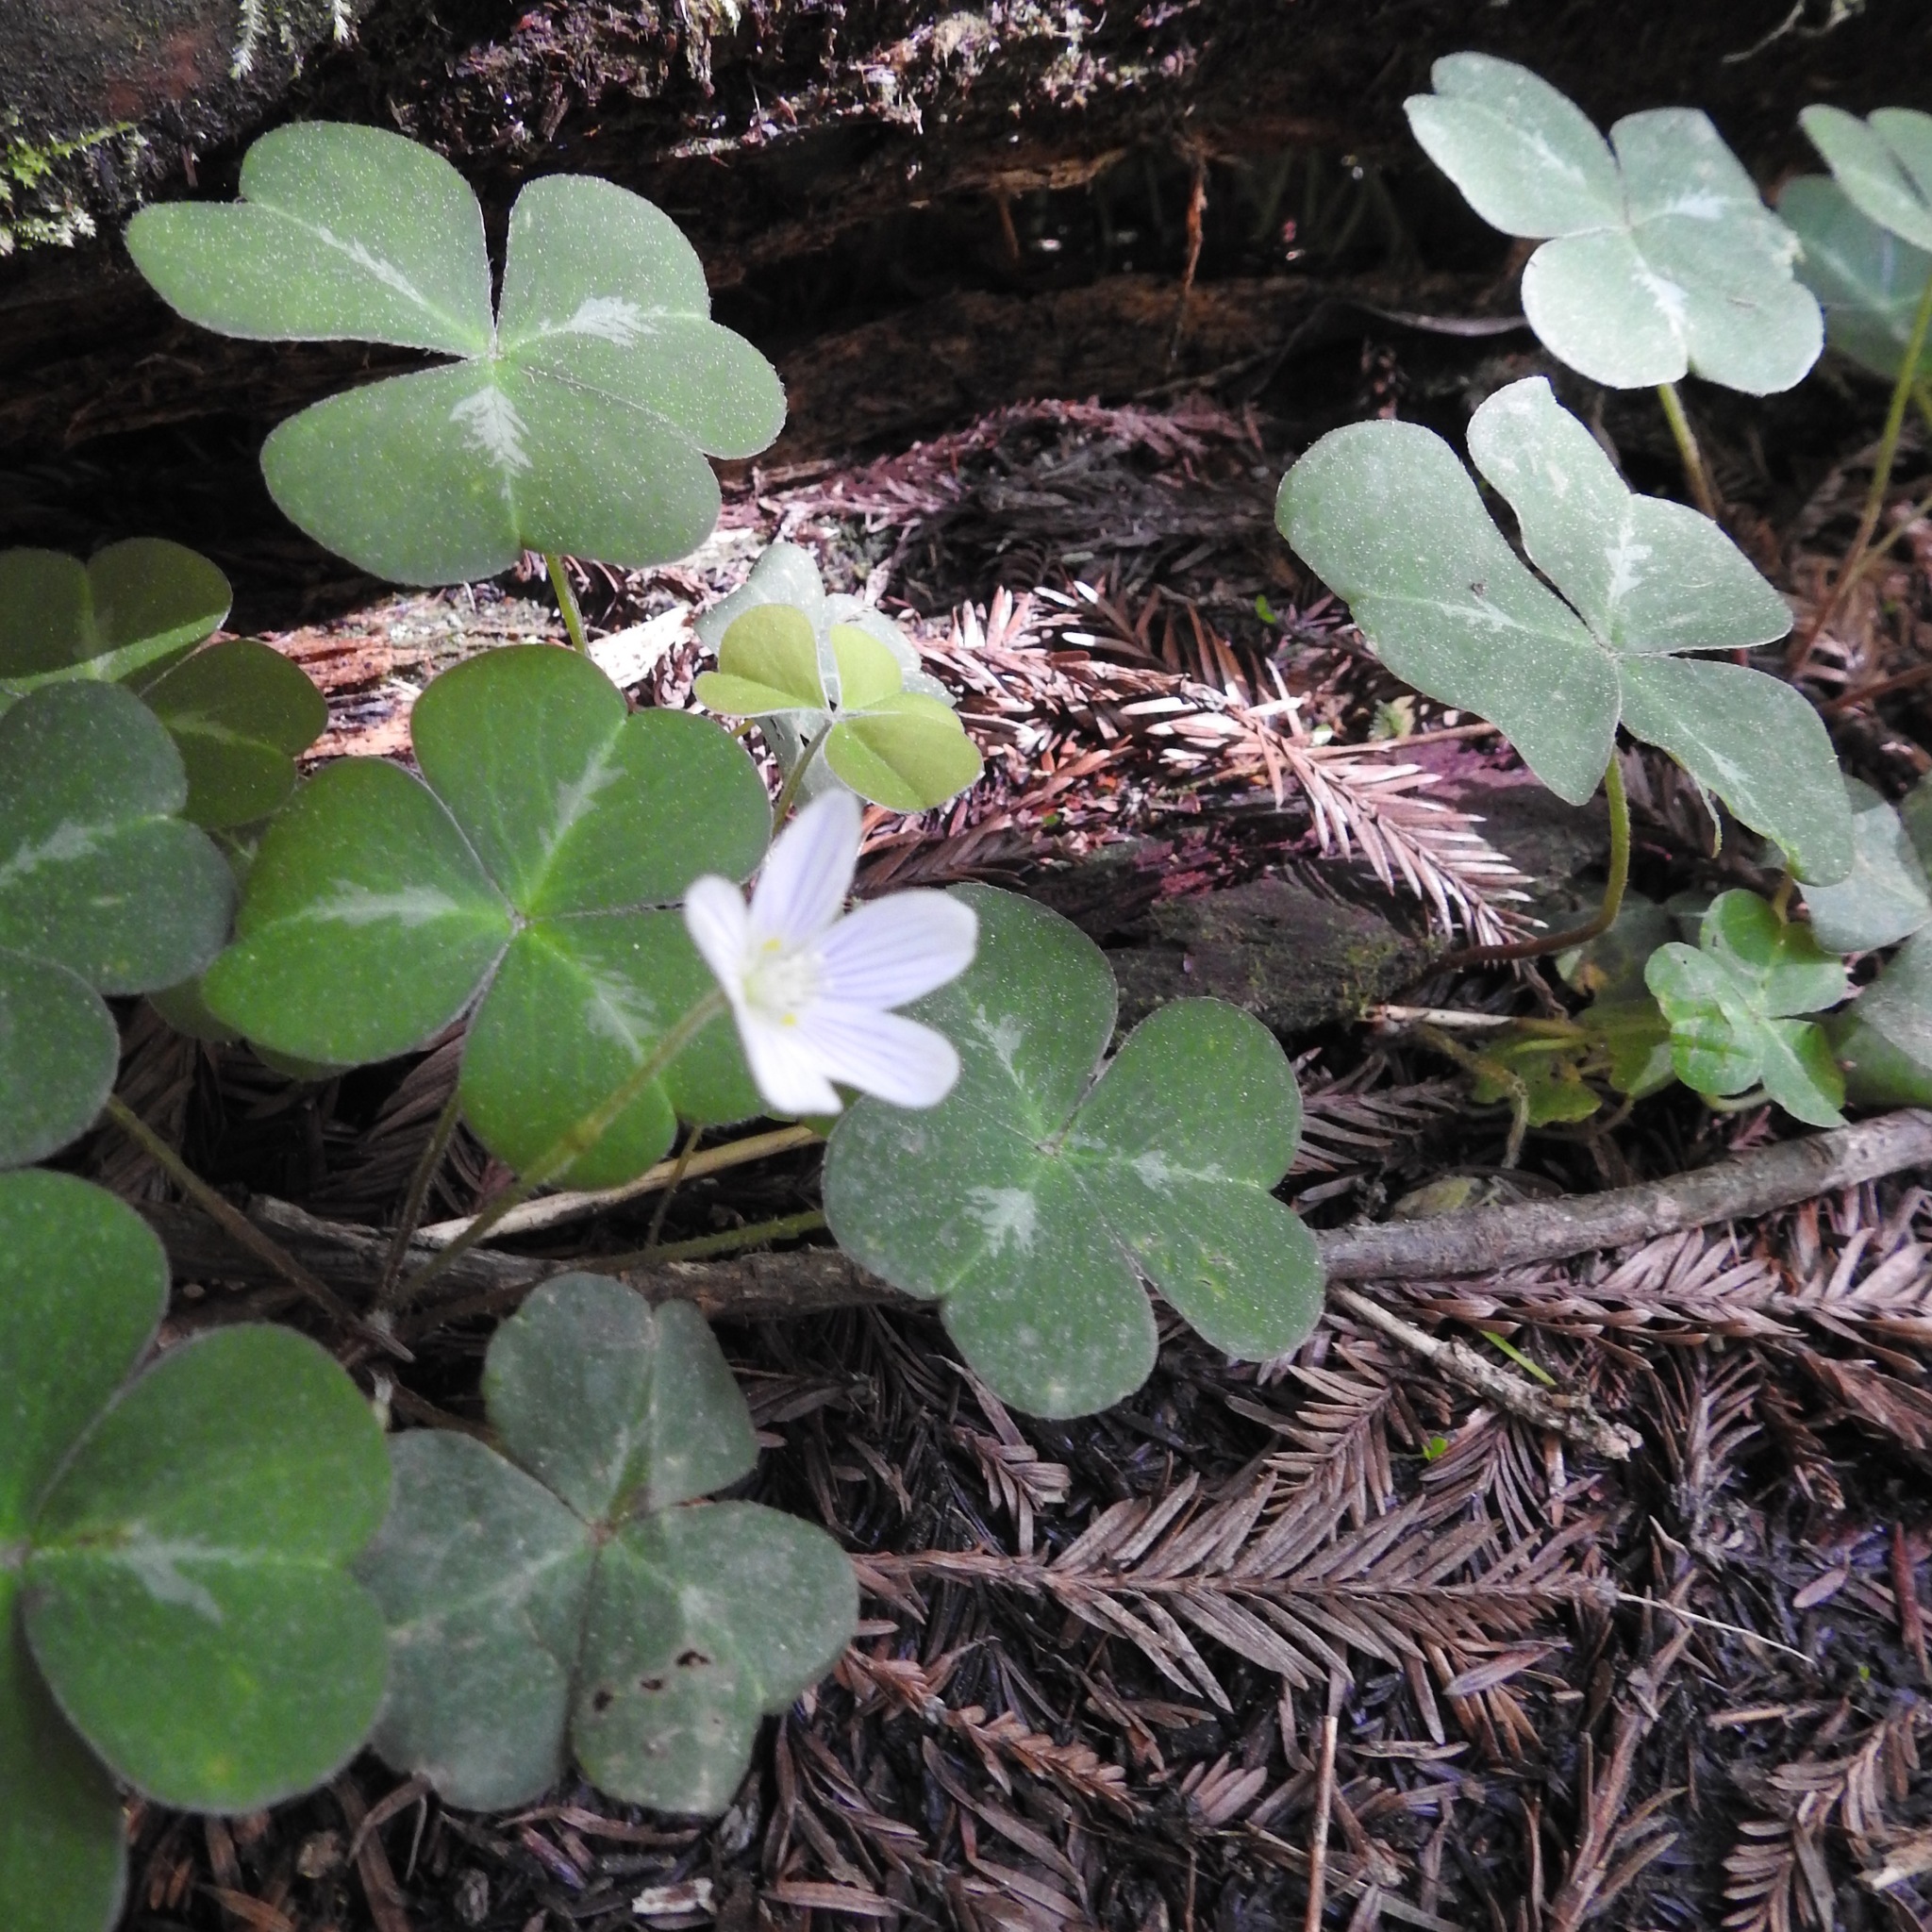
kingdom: Plantae
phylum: Tracheophyta
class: Magnoliopsida
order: Oxalidales
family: Oxalidaceae
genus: Oxalis
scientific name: Oxalis oregana
